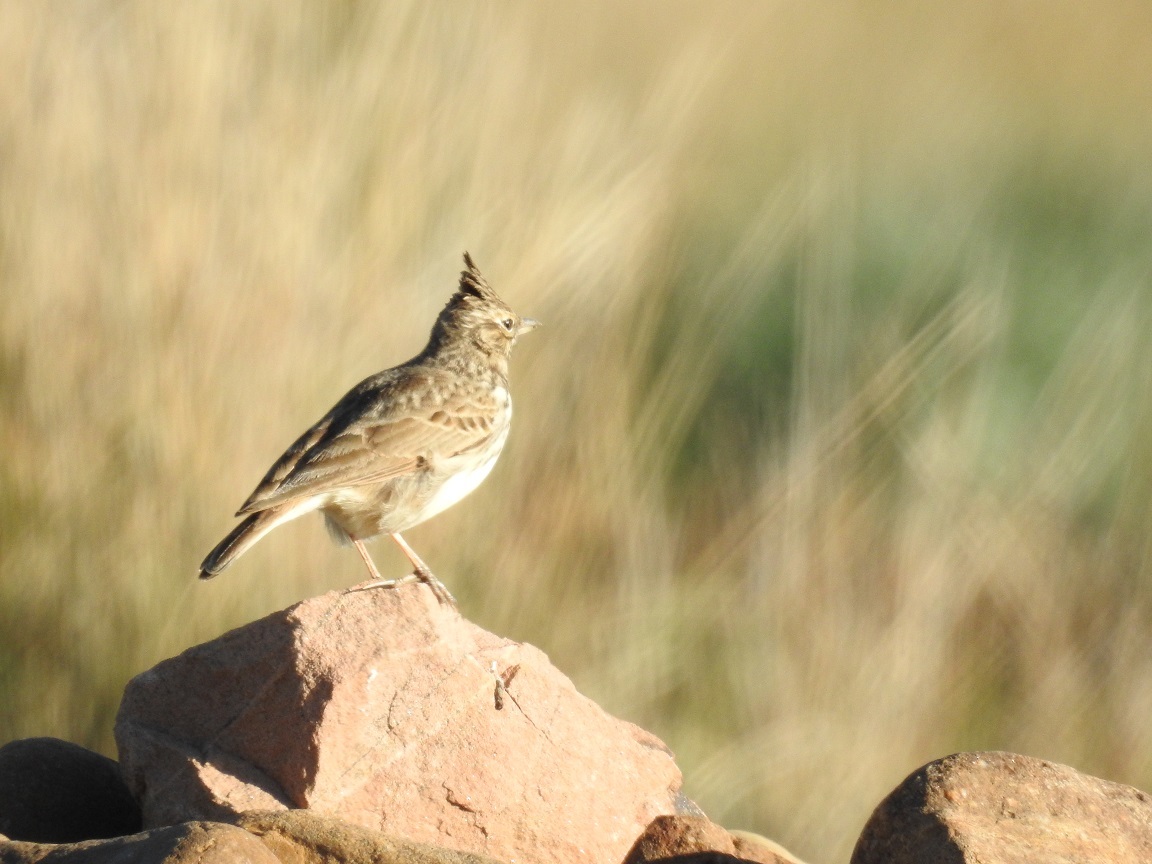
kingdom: Animalia
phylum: Chordata
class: Aves
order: Passeriformes
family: Alaudidae
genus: Galerida
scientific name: Galerida theklae
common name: Thekla lark
